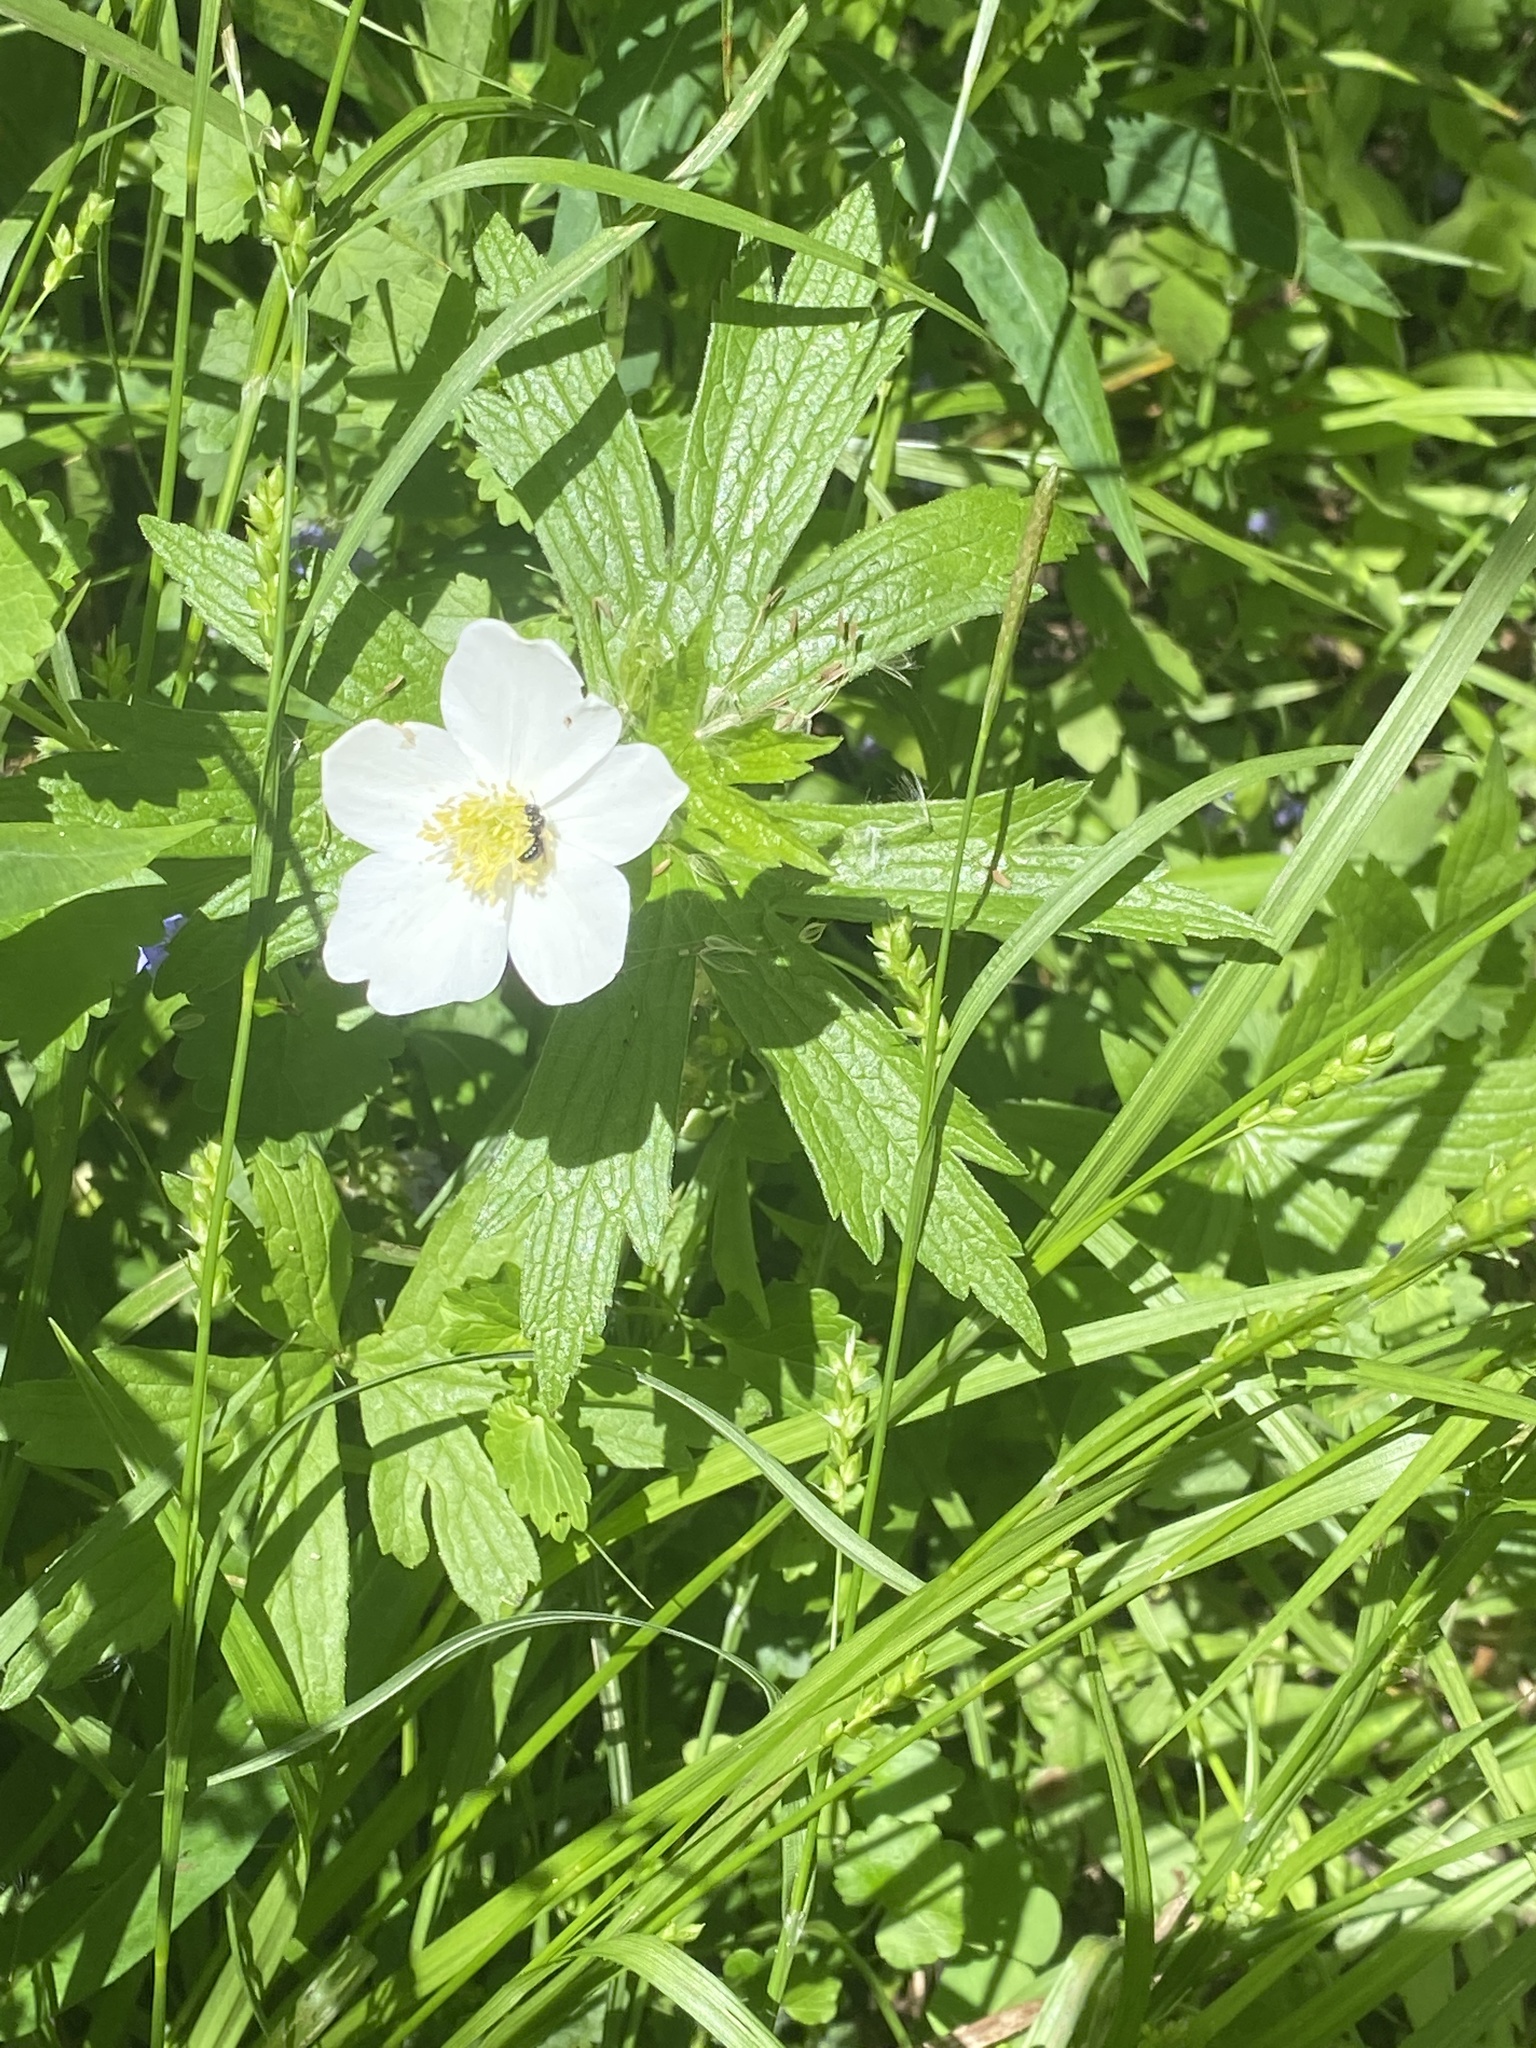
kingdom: Plantae
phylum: Tracheophyta
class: Magnoliopsida
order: Ranunculales
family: Ranunculaceae
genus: Anemonastrum
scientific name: Anemonastrum canadense
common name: Canada anemone
